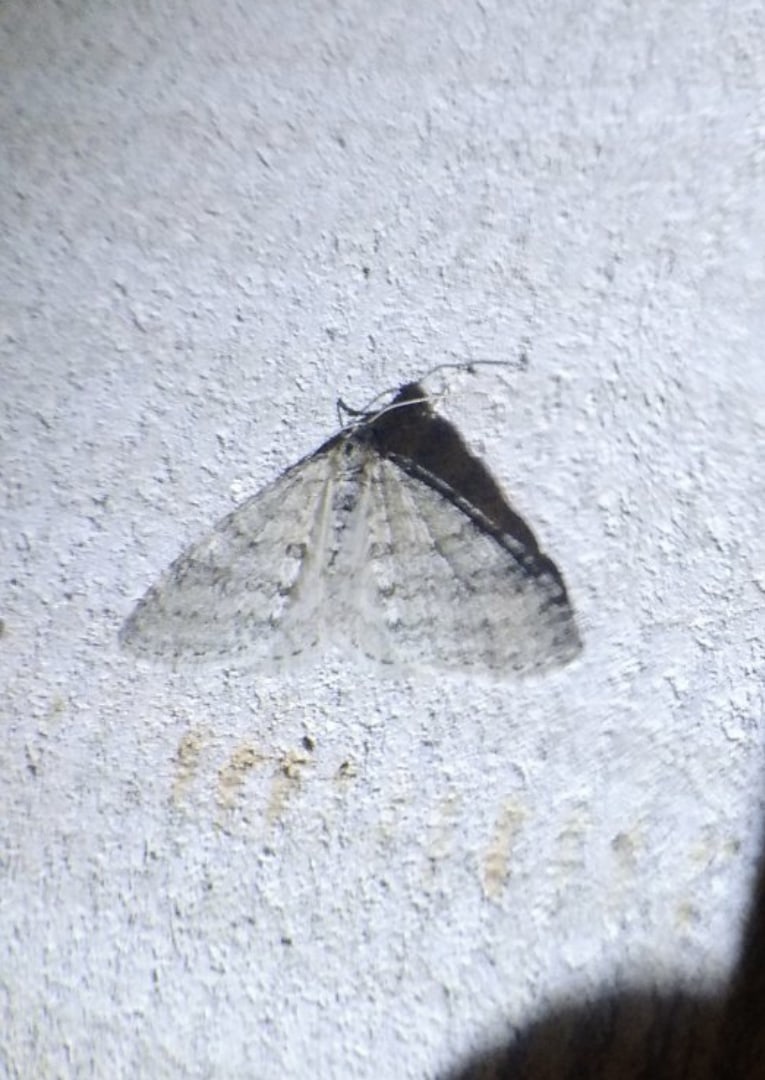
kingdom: Animalia
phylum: Arthropoda
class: Insecta
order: Lepidoptera
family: Geometridae
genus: Trichopteryx
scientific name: Trichopteryx carpinata
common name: Early tooth-striped
